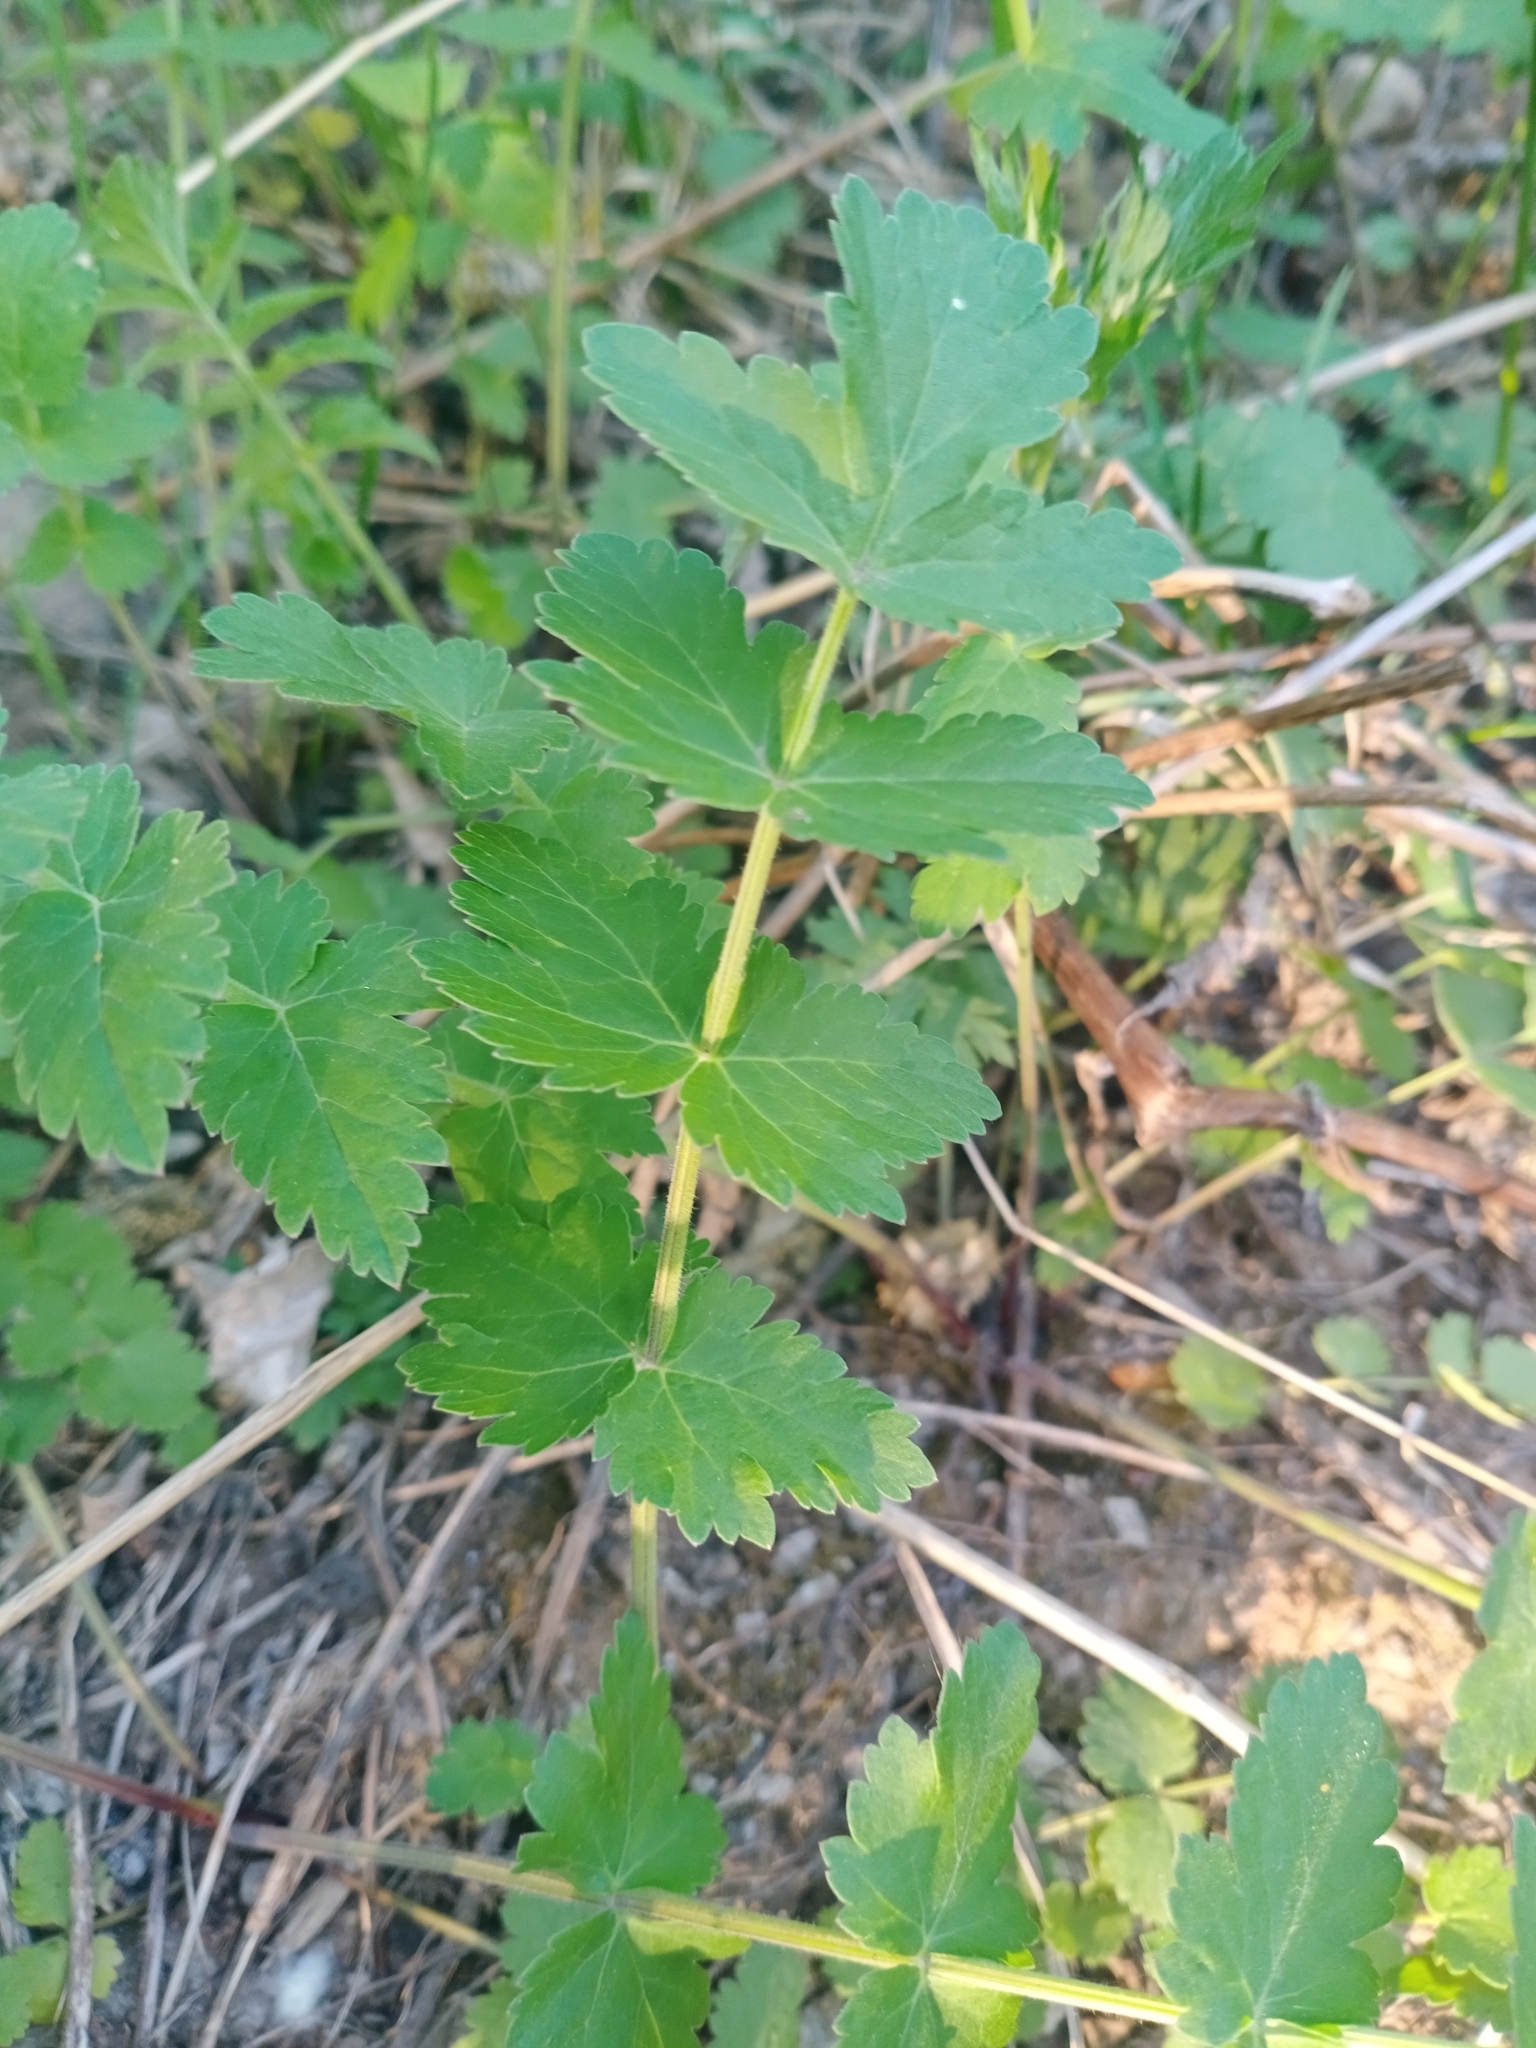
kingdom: Plantae
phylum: Tracheophyta
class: Magnoliopsida
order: Apiales
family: Apiaceae
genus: Pimpinella
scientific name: Pimpinella saxifraga
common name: Burnet-saxifrage
